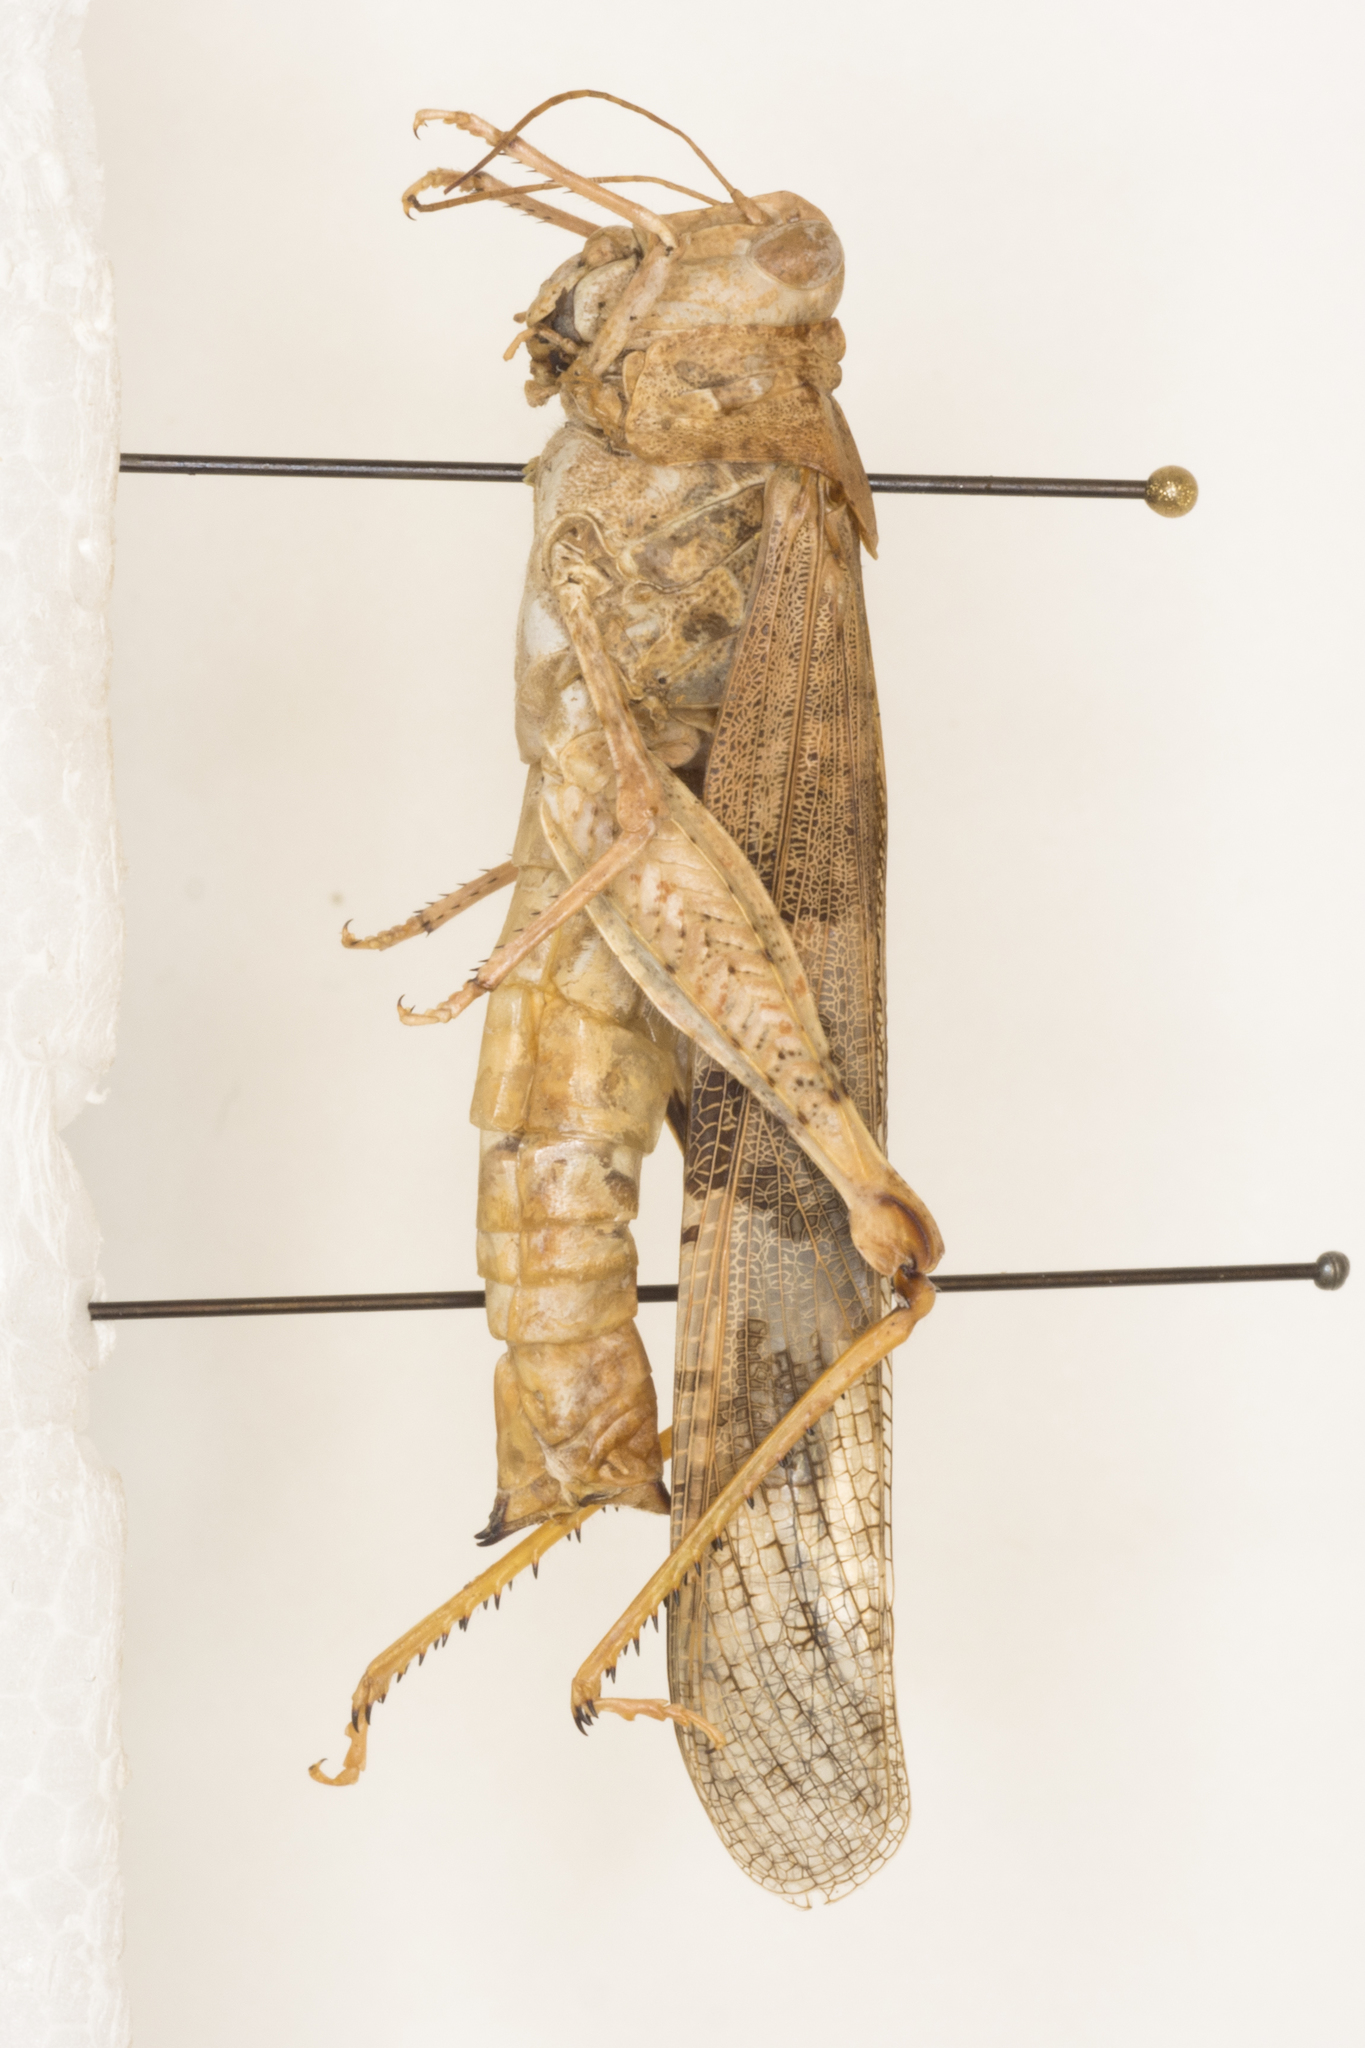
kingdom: Animalia
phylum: Arthropoda
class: Insecta
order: Orthoptera
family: Acrididae
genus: Trimerotropis
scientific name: Trimerotropis pallidipennis
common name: Pallid-winged grasshopper
